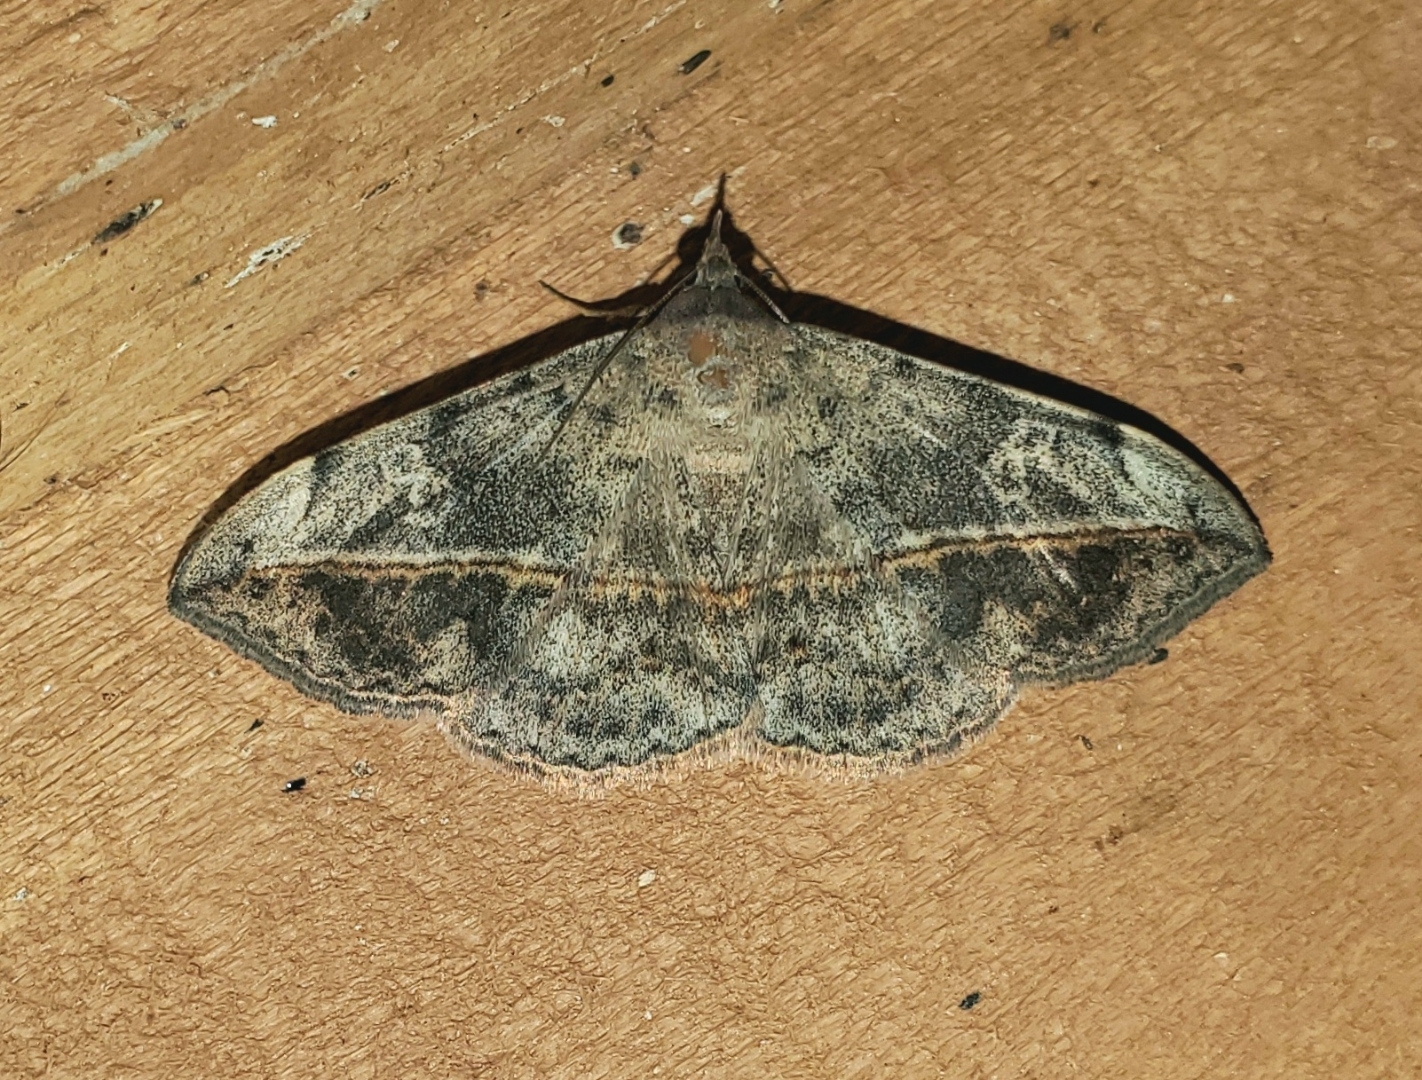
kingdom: Animalia
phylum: Arthropoda
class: Insecta
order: Lepidoptera
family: Erebidae
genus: Anticarsia
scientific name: Anticarsia gemmatalis
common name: Cutworm moth
